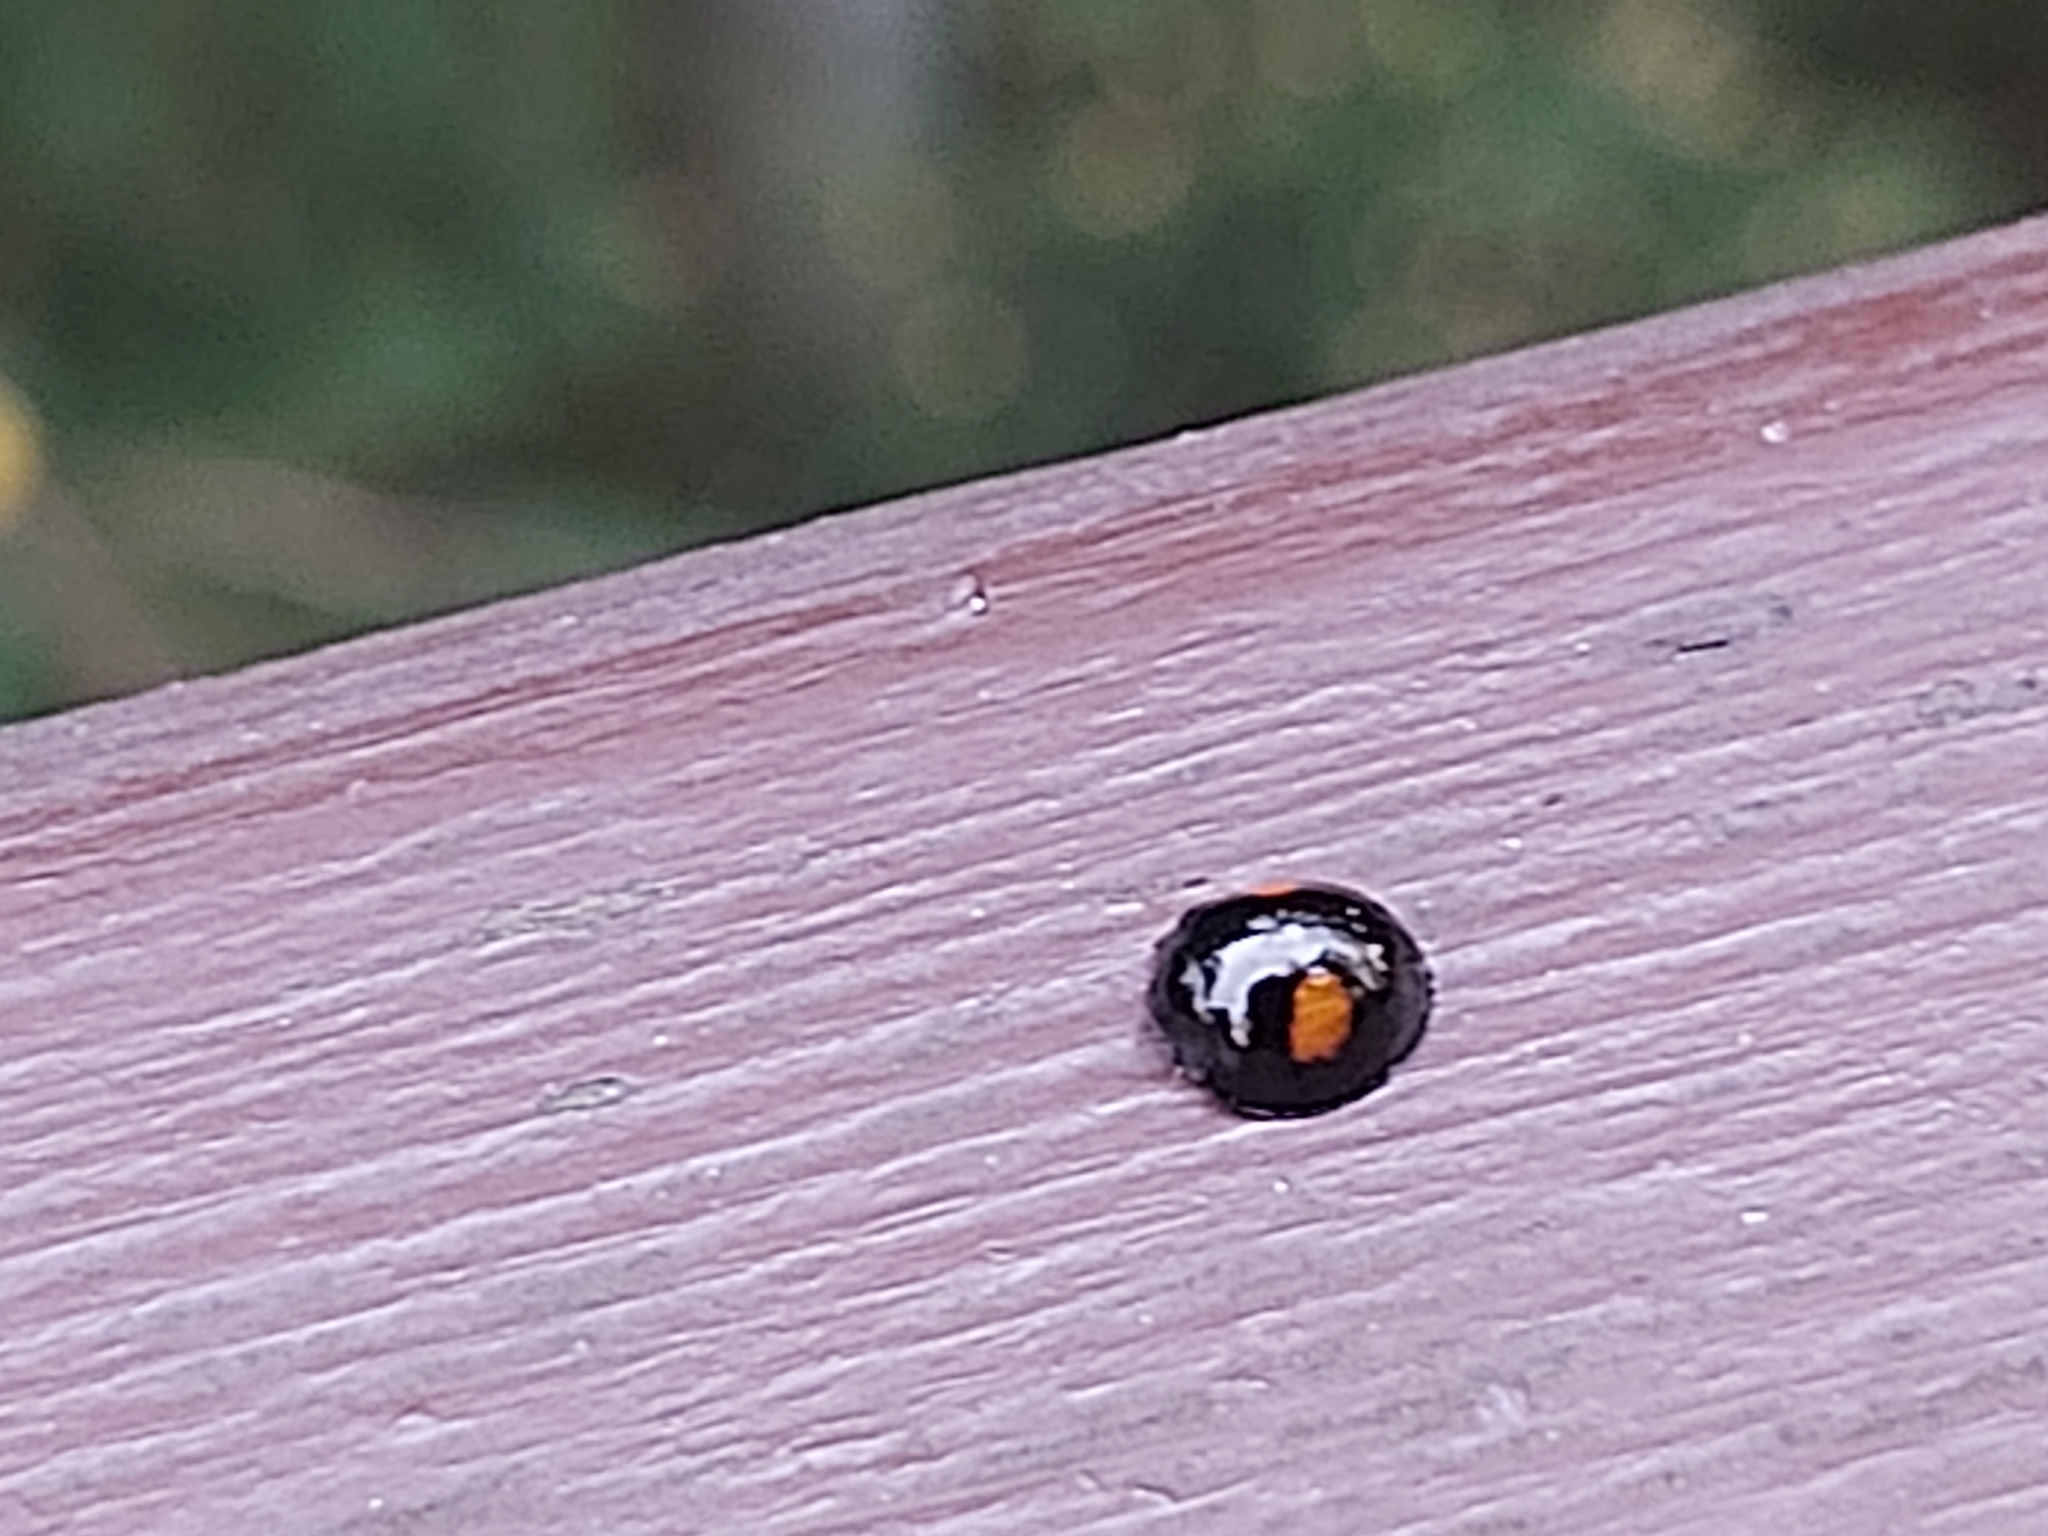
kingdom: Animalia
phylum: Arthropoda
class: Insecta
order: Coleoptera
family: Coccinellidae
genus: Chilocorus
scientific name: Chilocorus renipustulatus
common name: Kidney-spot ladybird
